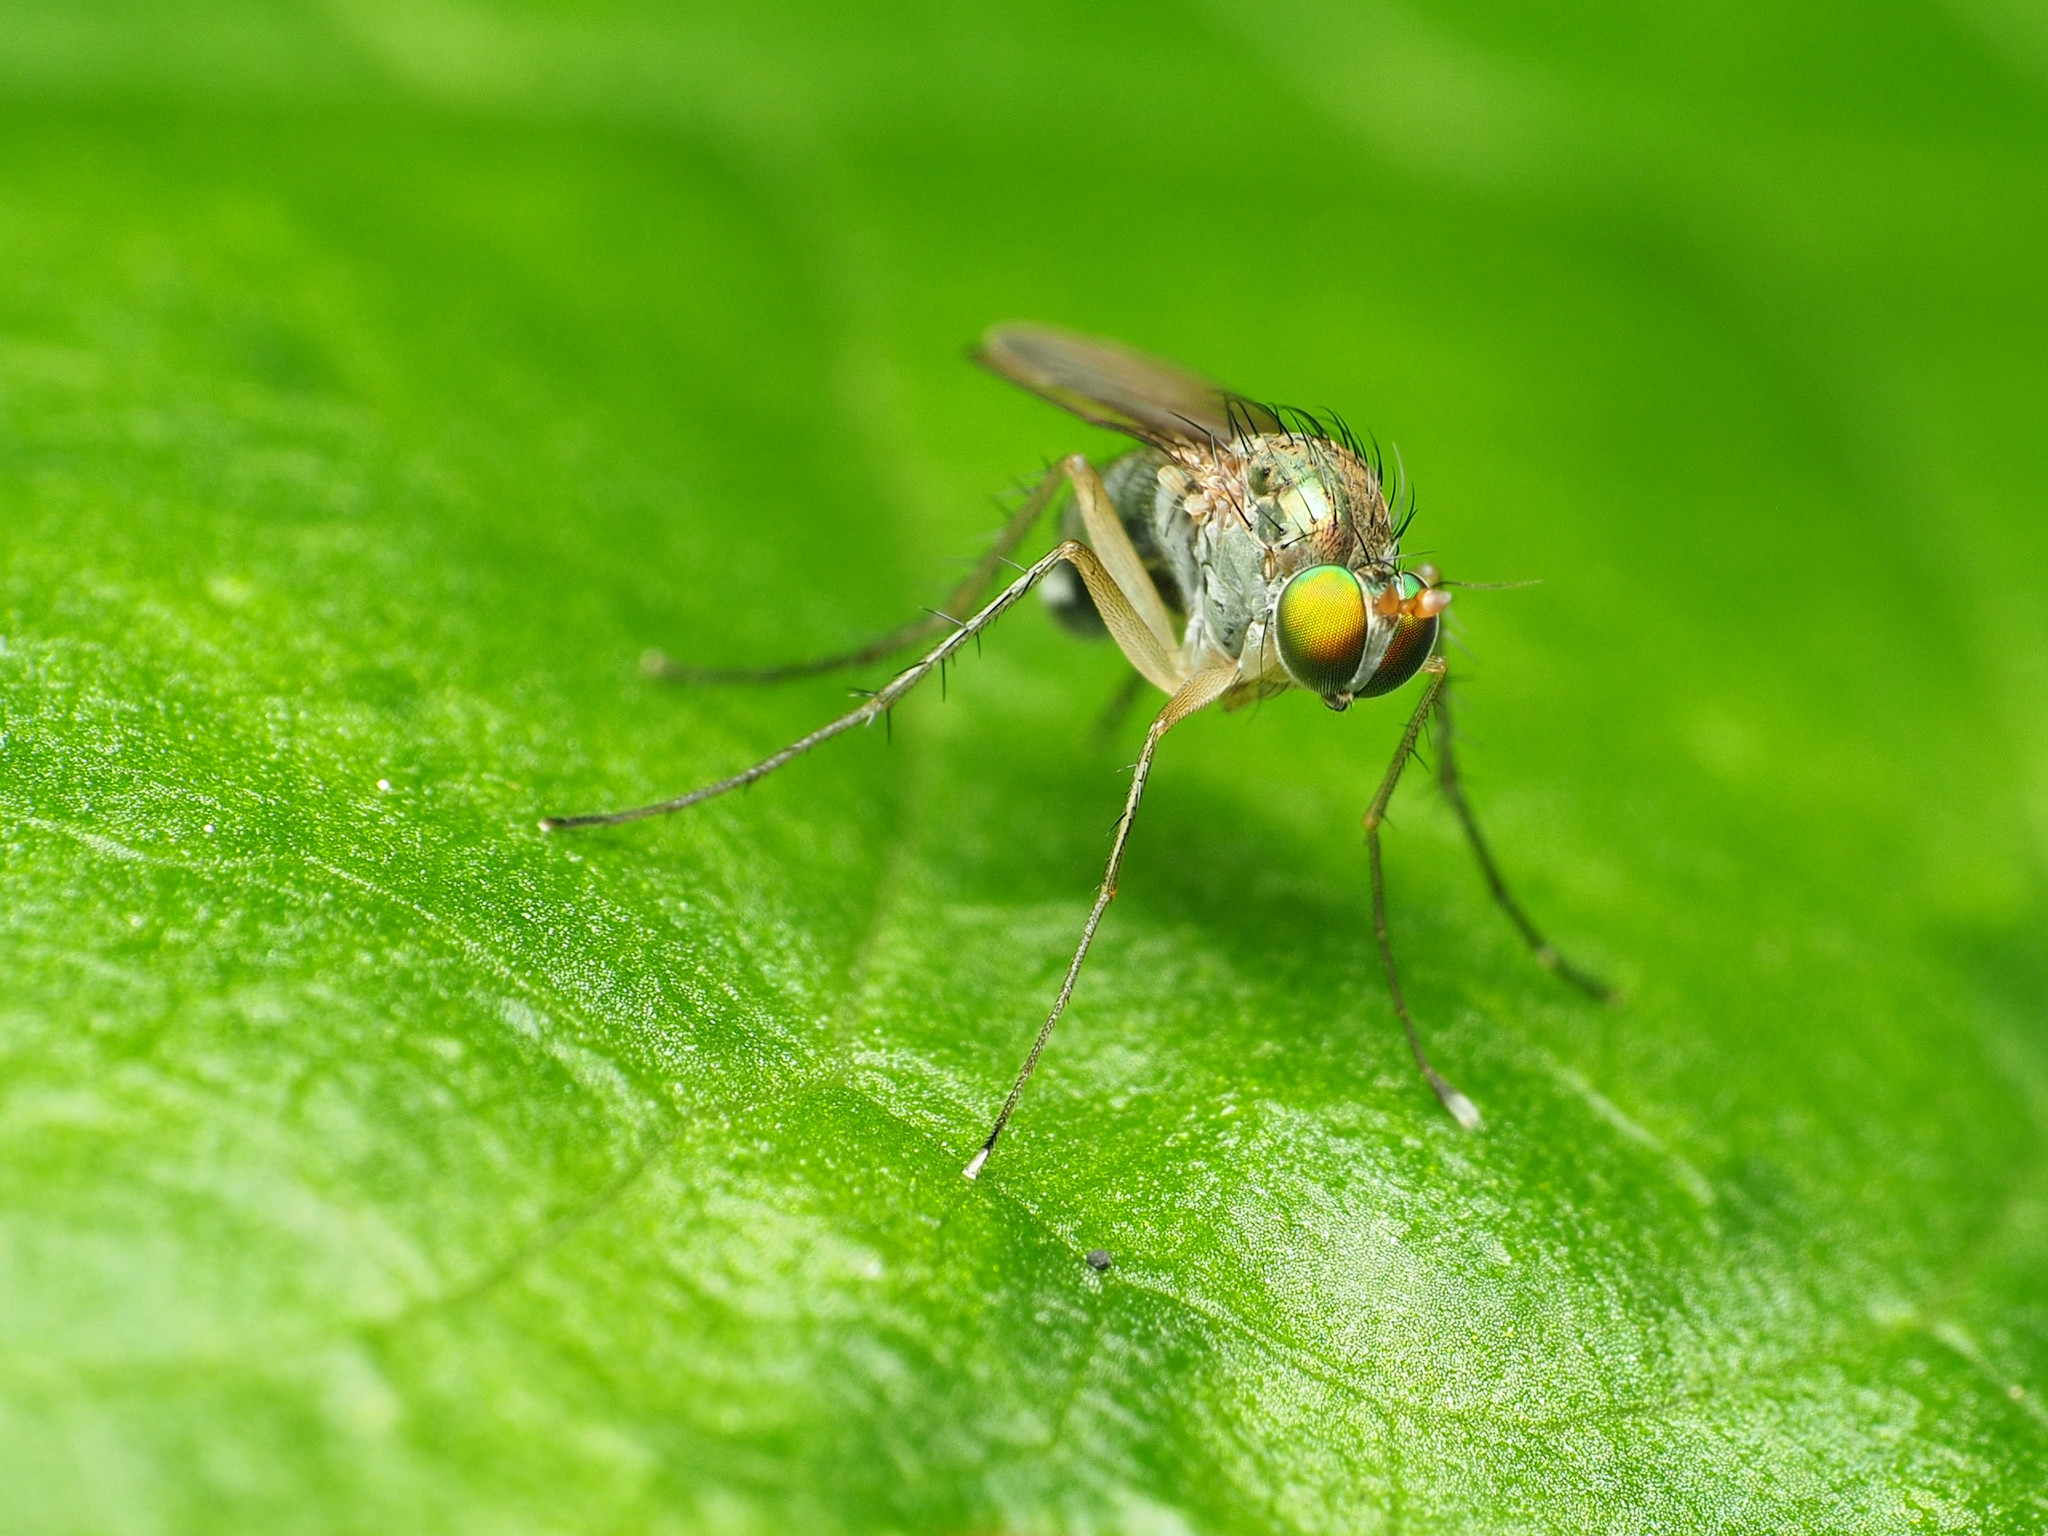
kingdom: Animalia
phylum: Arthropoda
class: Insecta
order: Diptera
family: Dolichopodidae
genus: Dolichopus
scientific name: Dolichopus funditor
